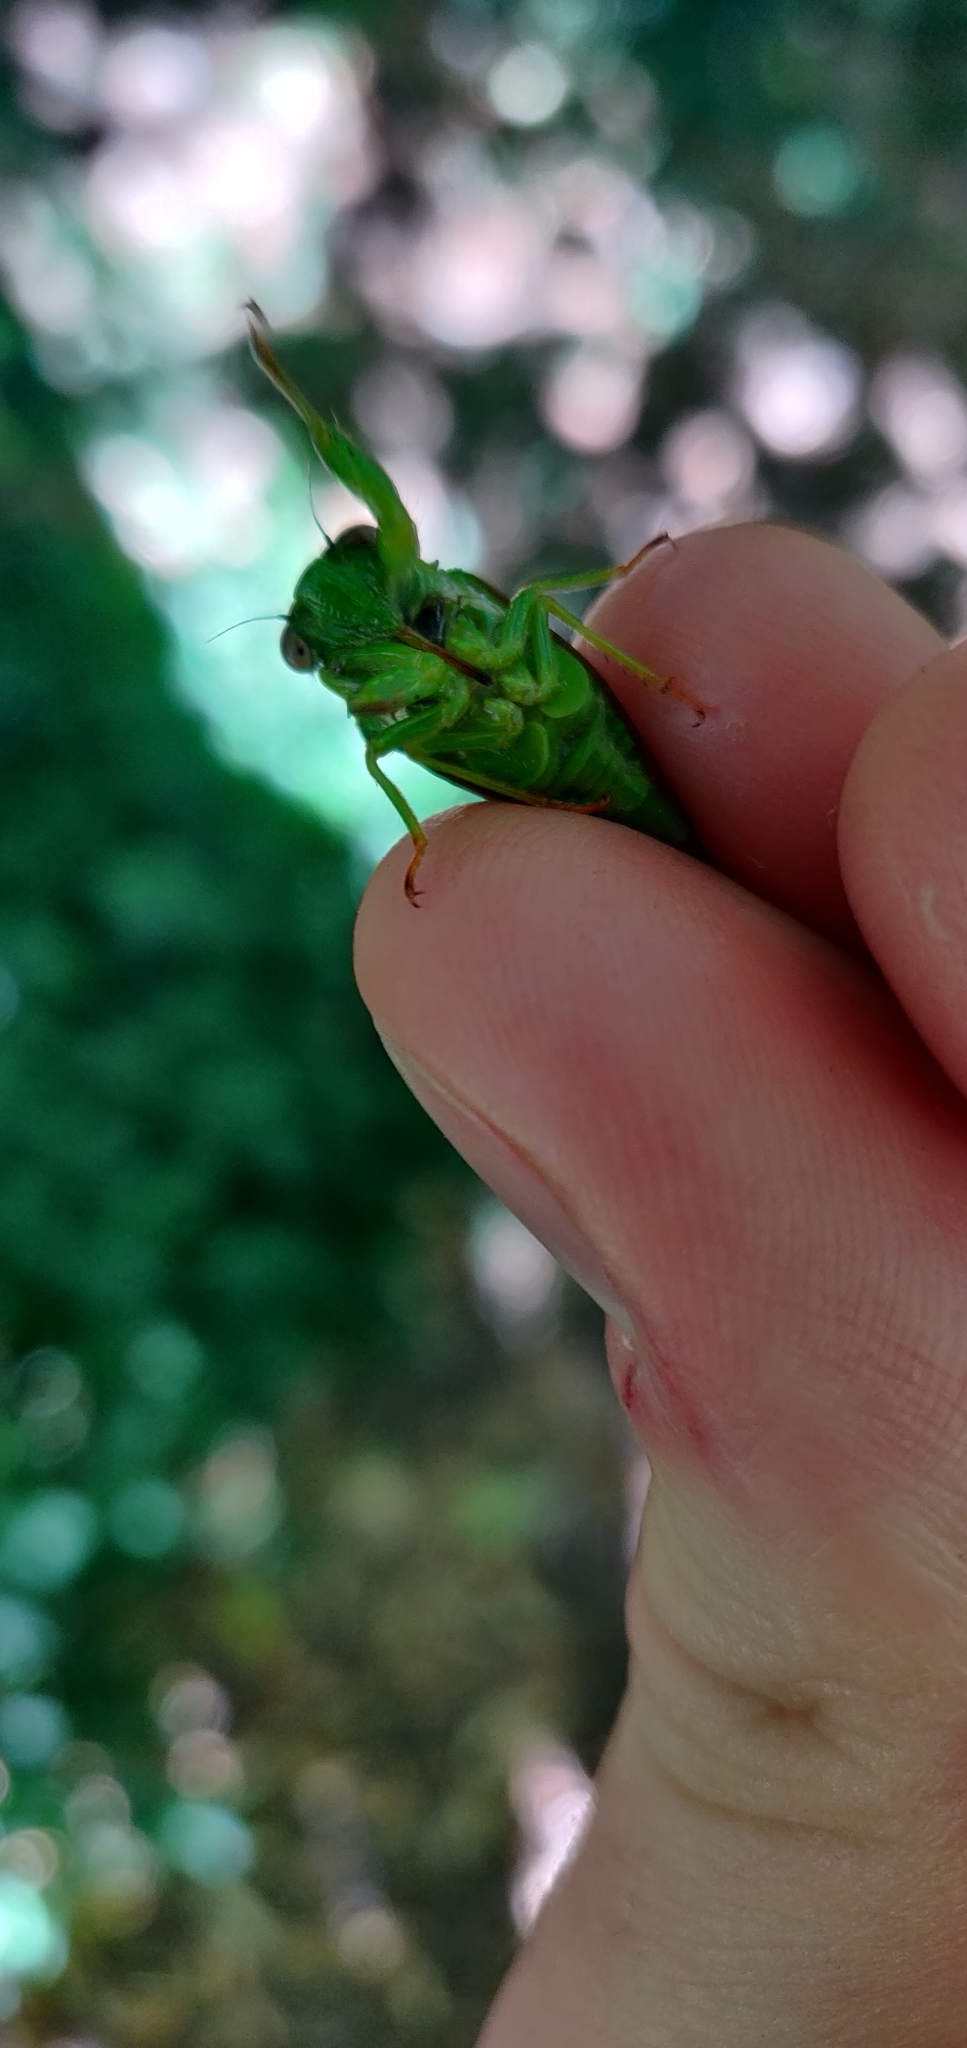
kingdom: Animalia
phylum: Arthropoda
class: Insecta
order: Hemiptera
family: Cicadidae
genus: Kikihia
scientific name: Kikihia ochrina
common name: April green cicada
